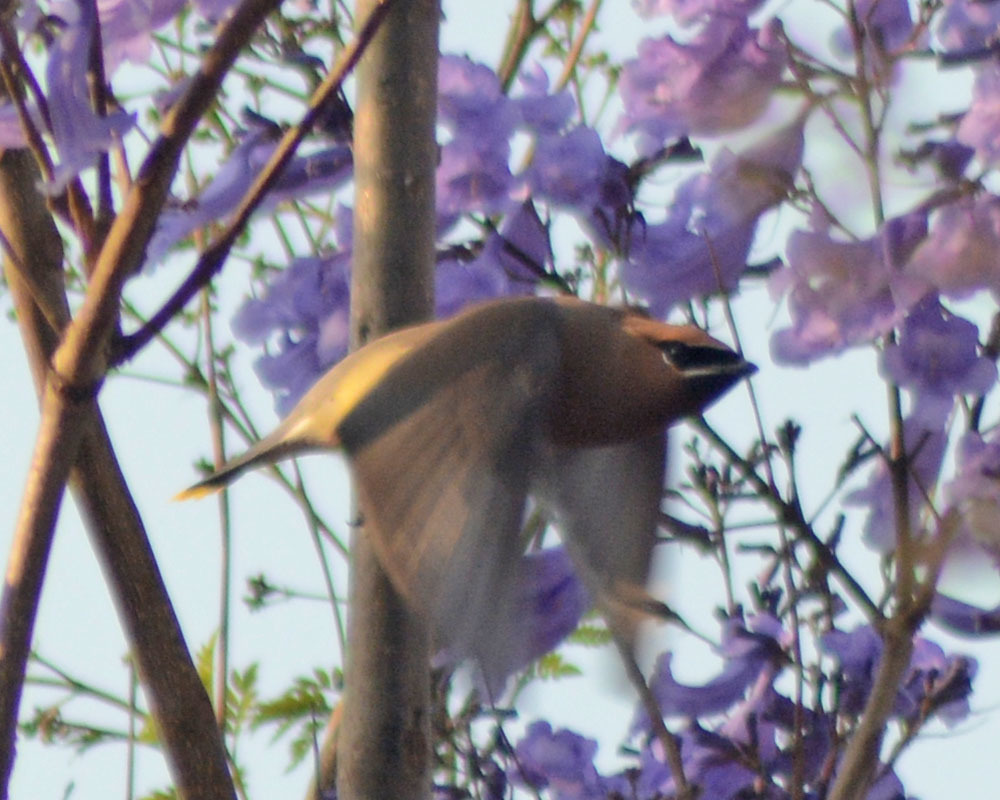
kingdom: Animalia
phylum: Chordata
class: Aves
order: Passeriformes
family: Bombycillidae
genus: Bombycilla
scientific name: Bombycilla cedrorum
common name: Cedar waxwing
